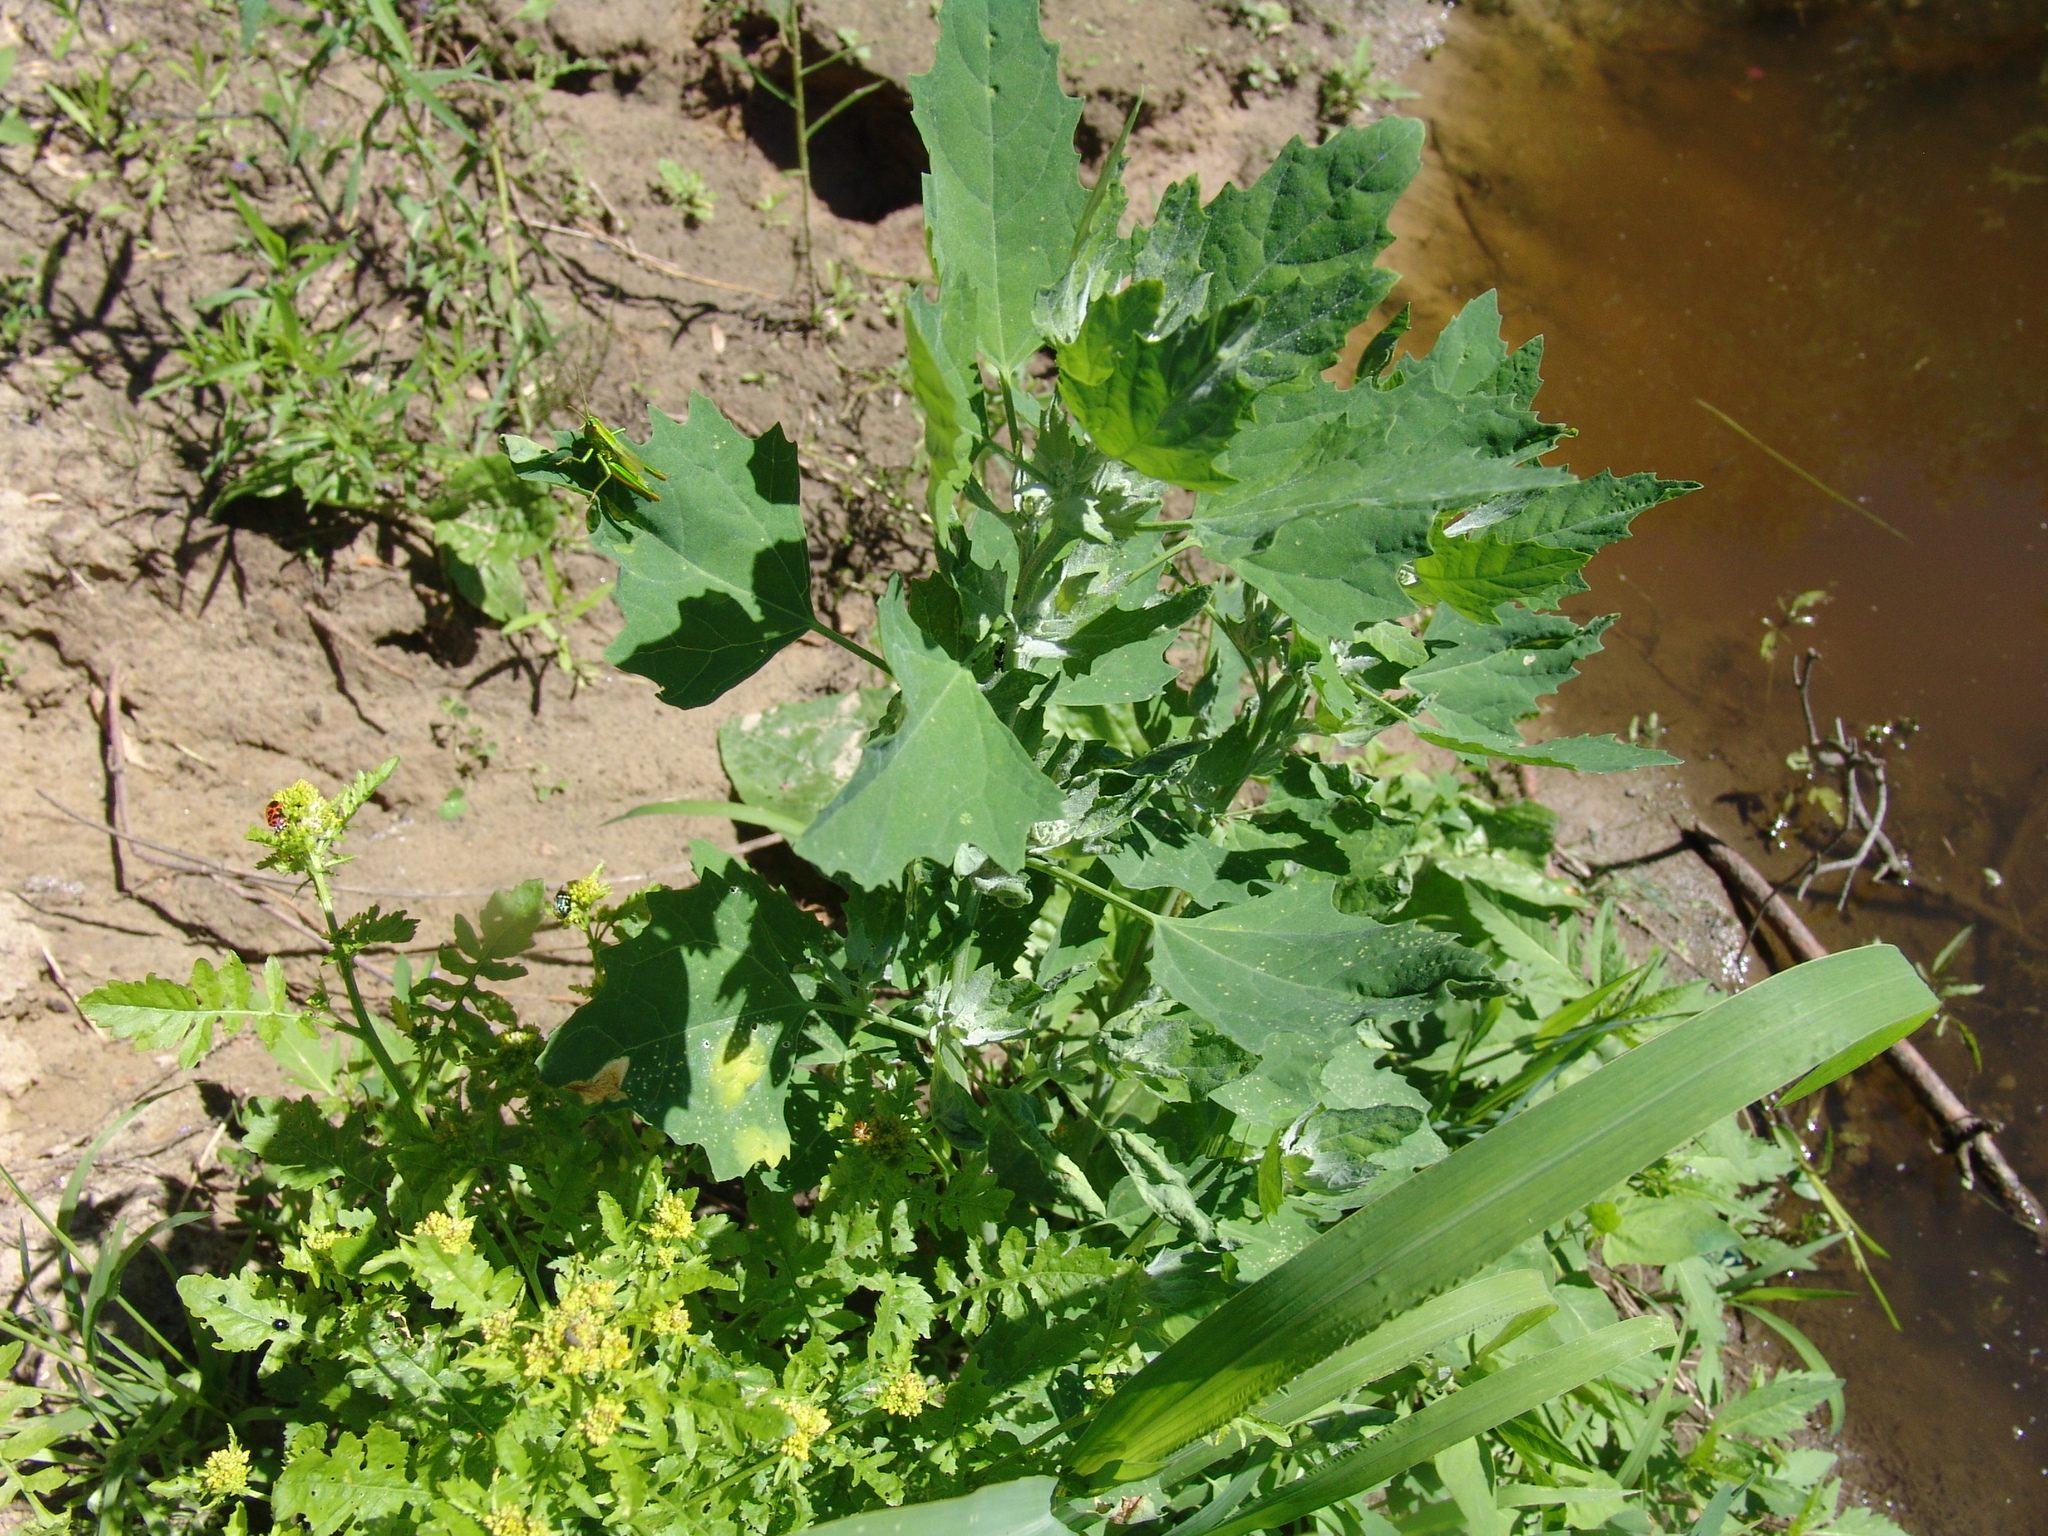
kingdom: Plantae
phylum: Tracheophyta
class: Magnoliopsida
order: Caryophyllales
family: Amaranthaceae
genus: Chenopodium
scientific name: Chenopodium album
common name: Fat-hen
